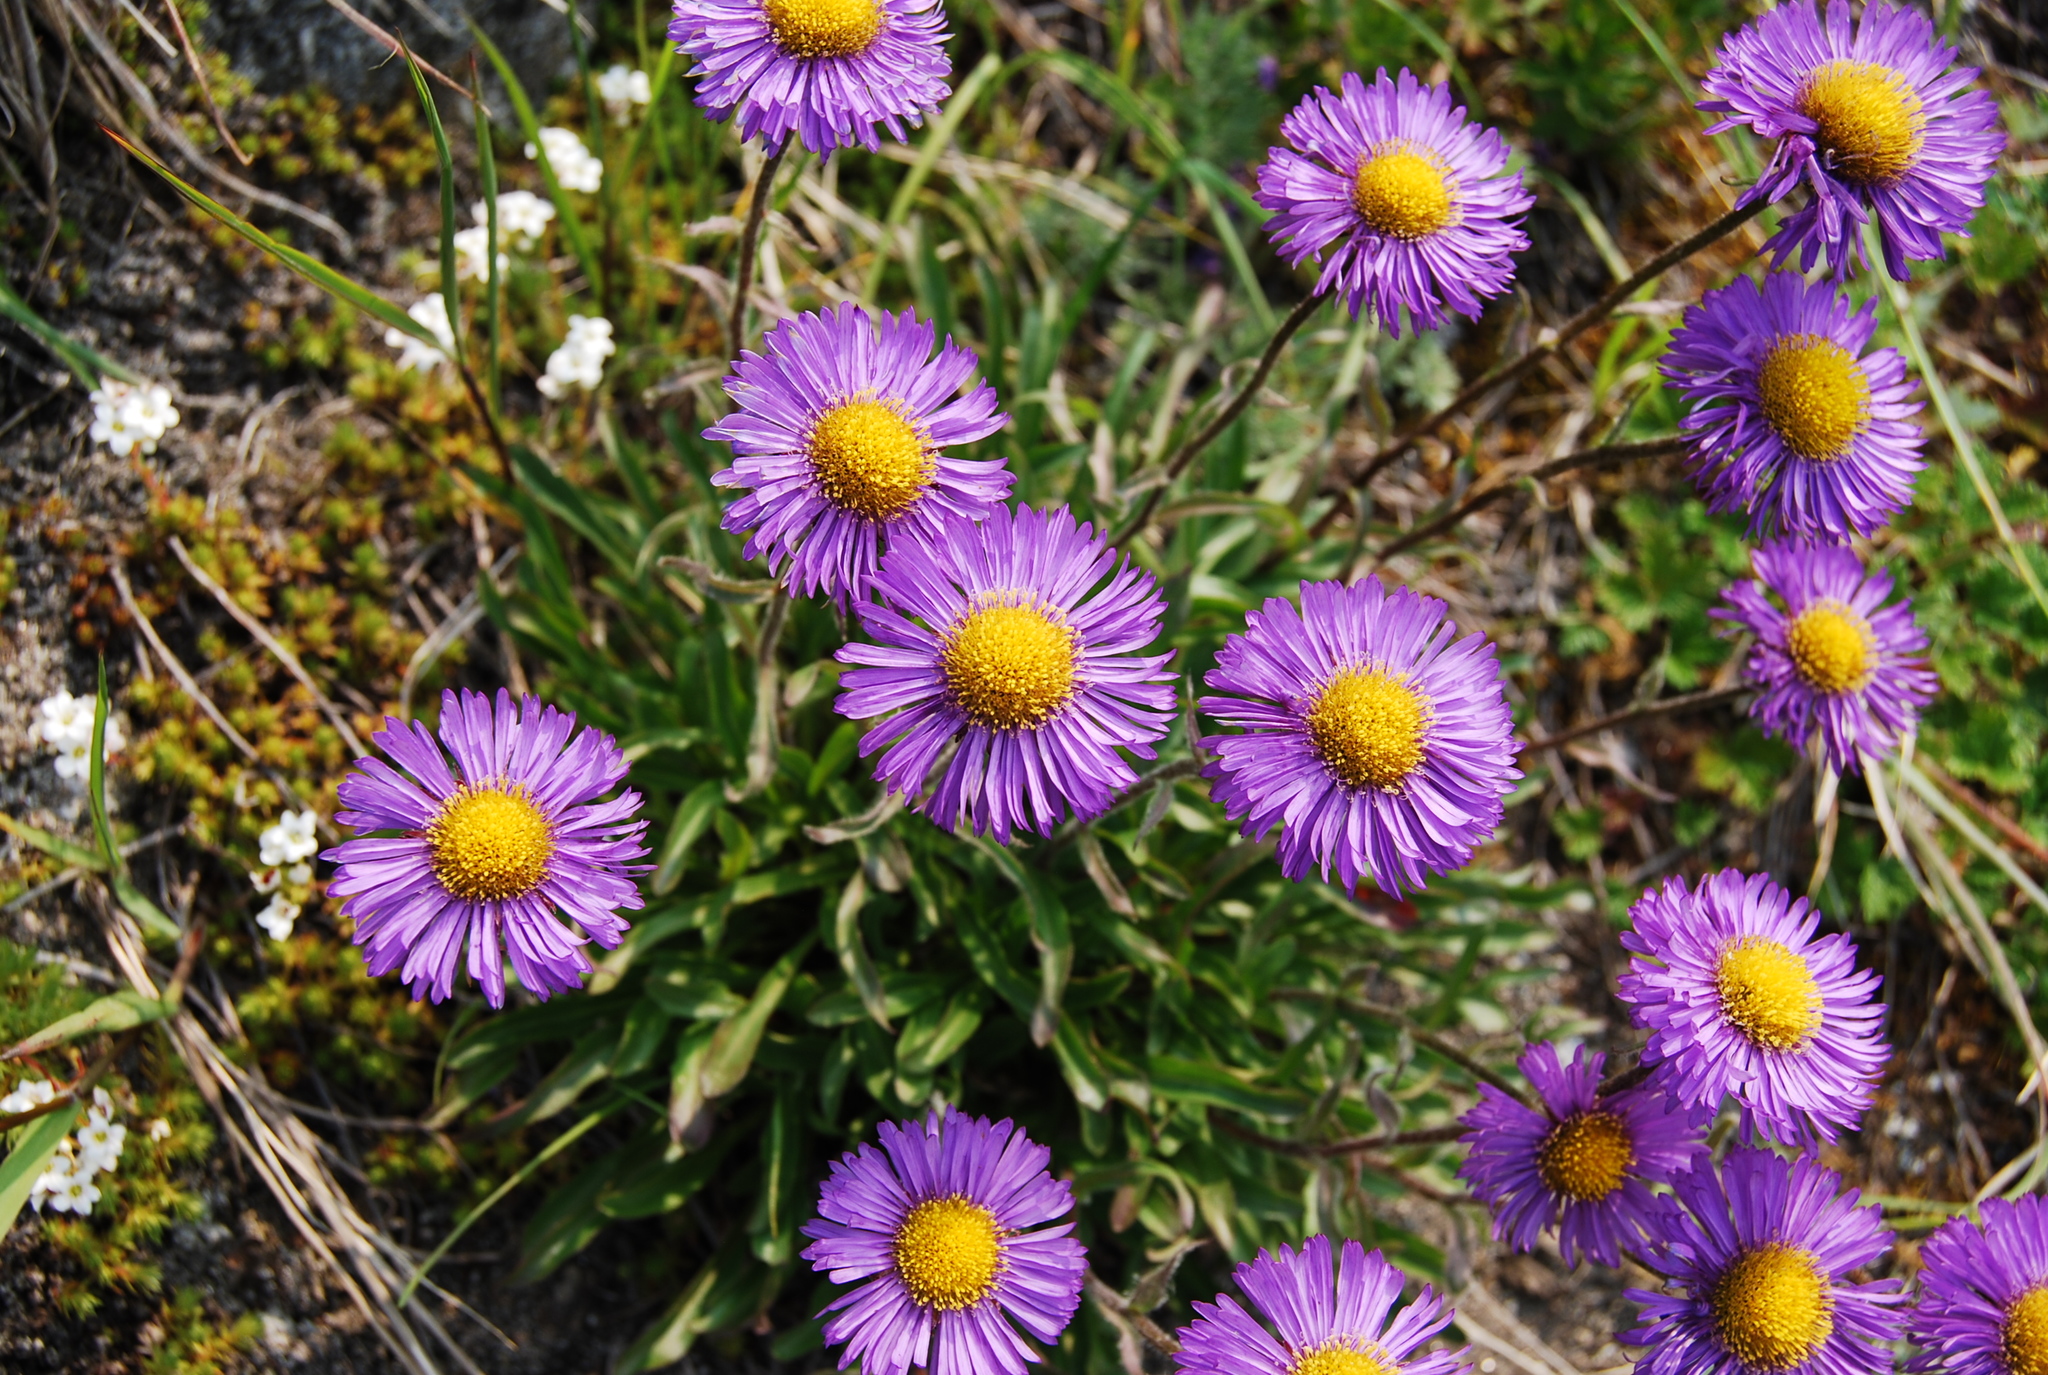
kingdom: Plantae
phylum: Tracheophyta
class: Magnoliopsida
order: Asterales
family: Asteraceae
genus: Erigeron
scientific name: Erigeron thunbergii
